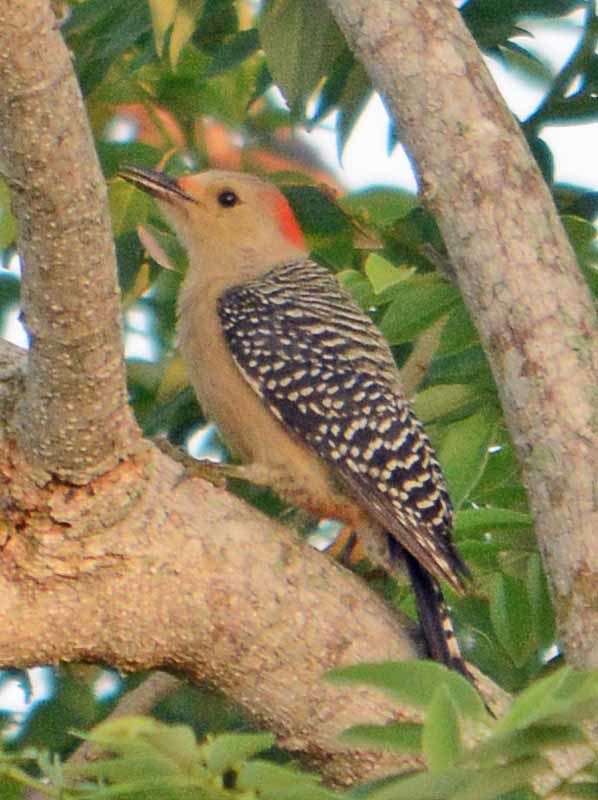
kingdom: Animalia
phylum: Chordata
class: Aves
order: Piciformes
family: Picidae
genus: Melanerpes
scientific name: Melanerpes aurifrons
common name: Golden-fronted woodpecker
